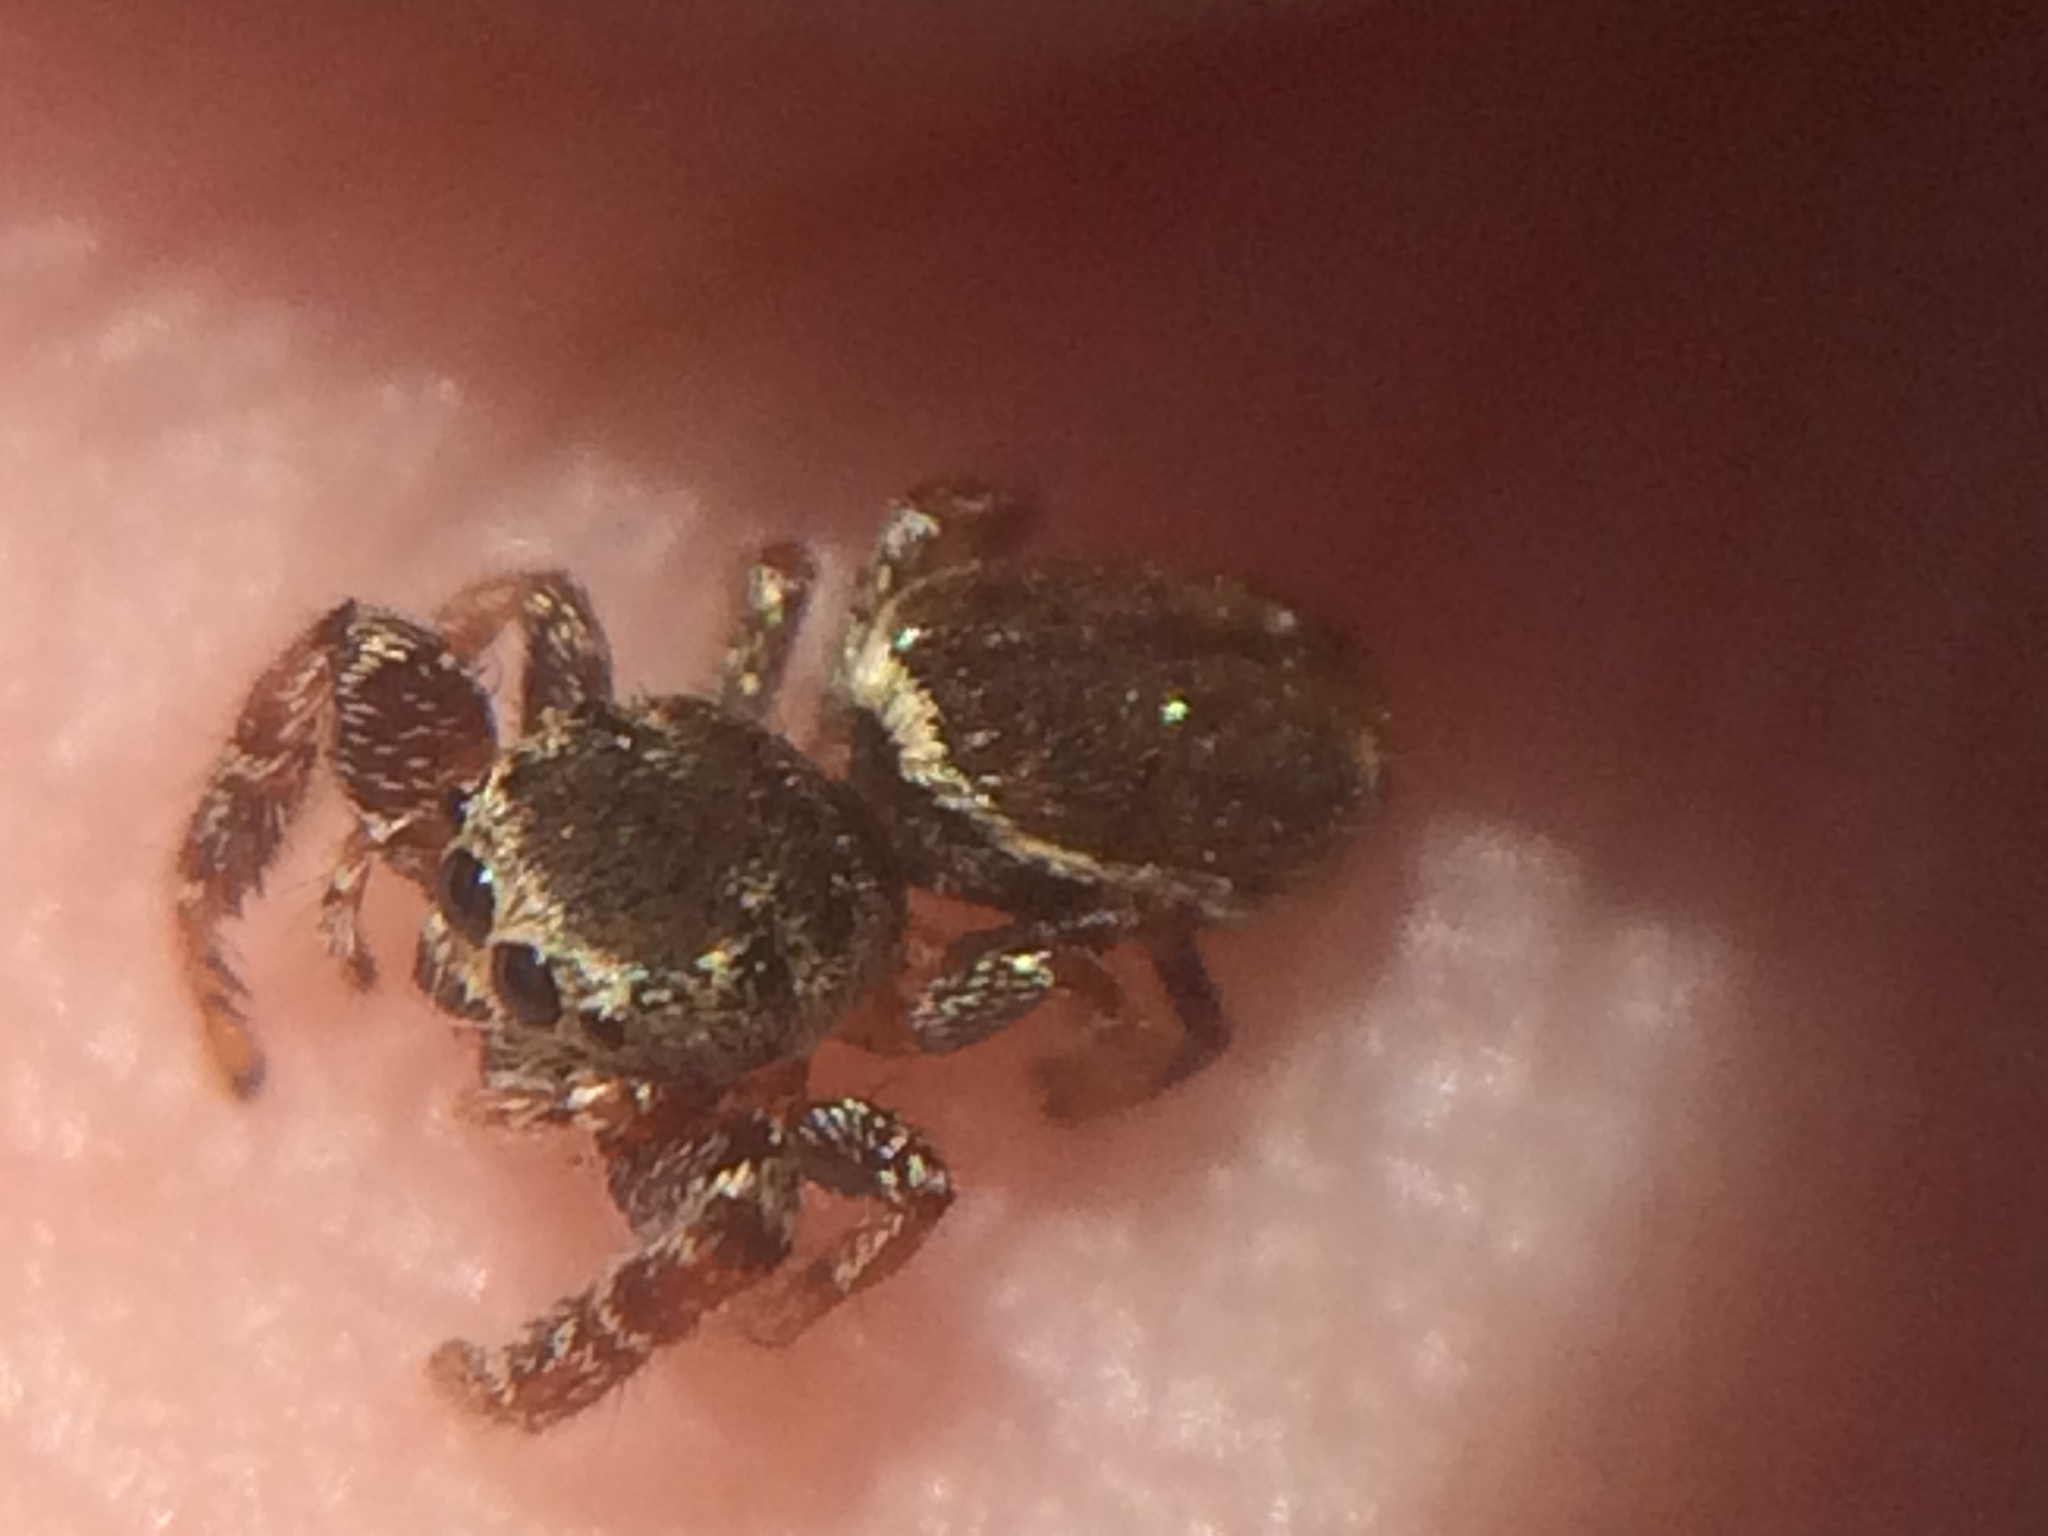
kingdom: Animalia
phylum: Arthropoda
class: Arachnida
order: Araneae
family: Salticidae
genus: Sassacus
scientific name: Sassacus vitis
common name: Jumping spiders
